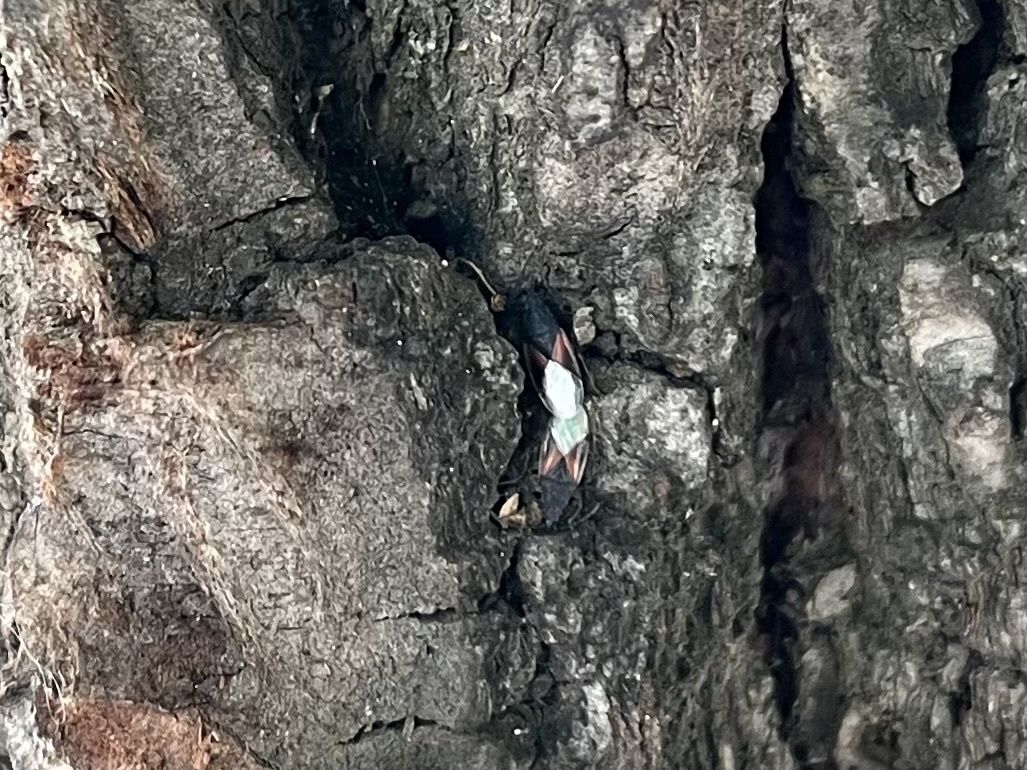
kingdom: Animalia
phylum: Arthropoda
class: Insecta
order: Hemiptera
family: Oxycarenidae
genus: Oxycarenus
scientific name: Oxycarenus lavaterae
